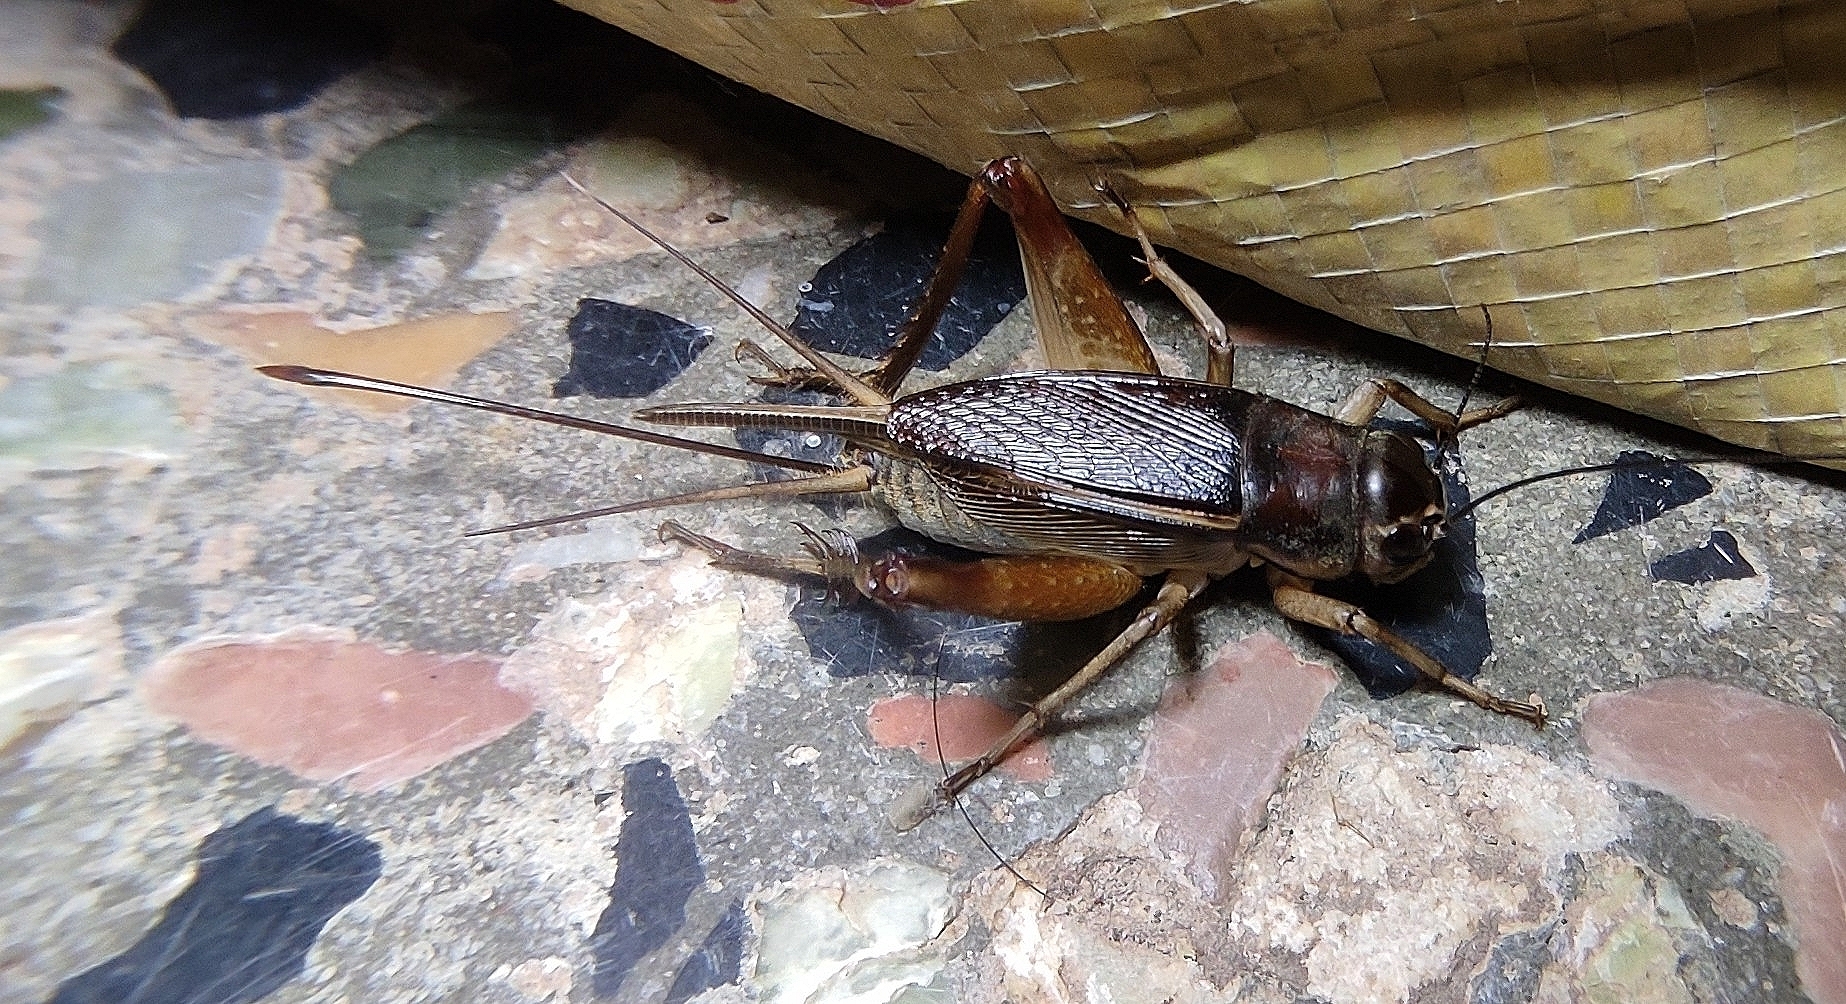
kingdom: Animalia
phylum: Arthropoda
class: Insecta
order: Orthoptera
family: Gryllidae
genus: Teleogryllus
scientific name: Teleogryllus mitratus
